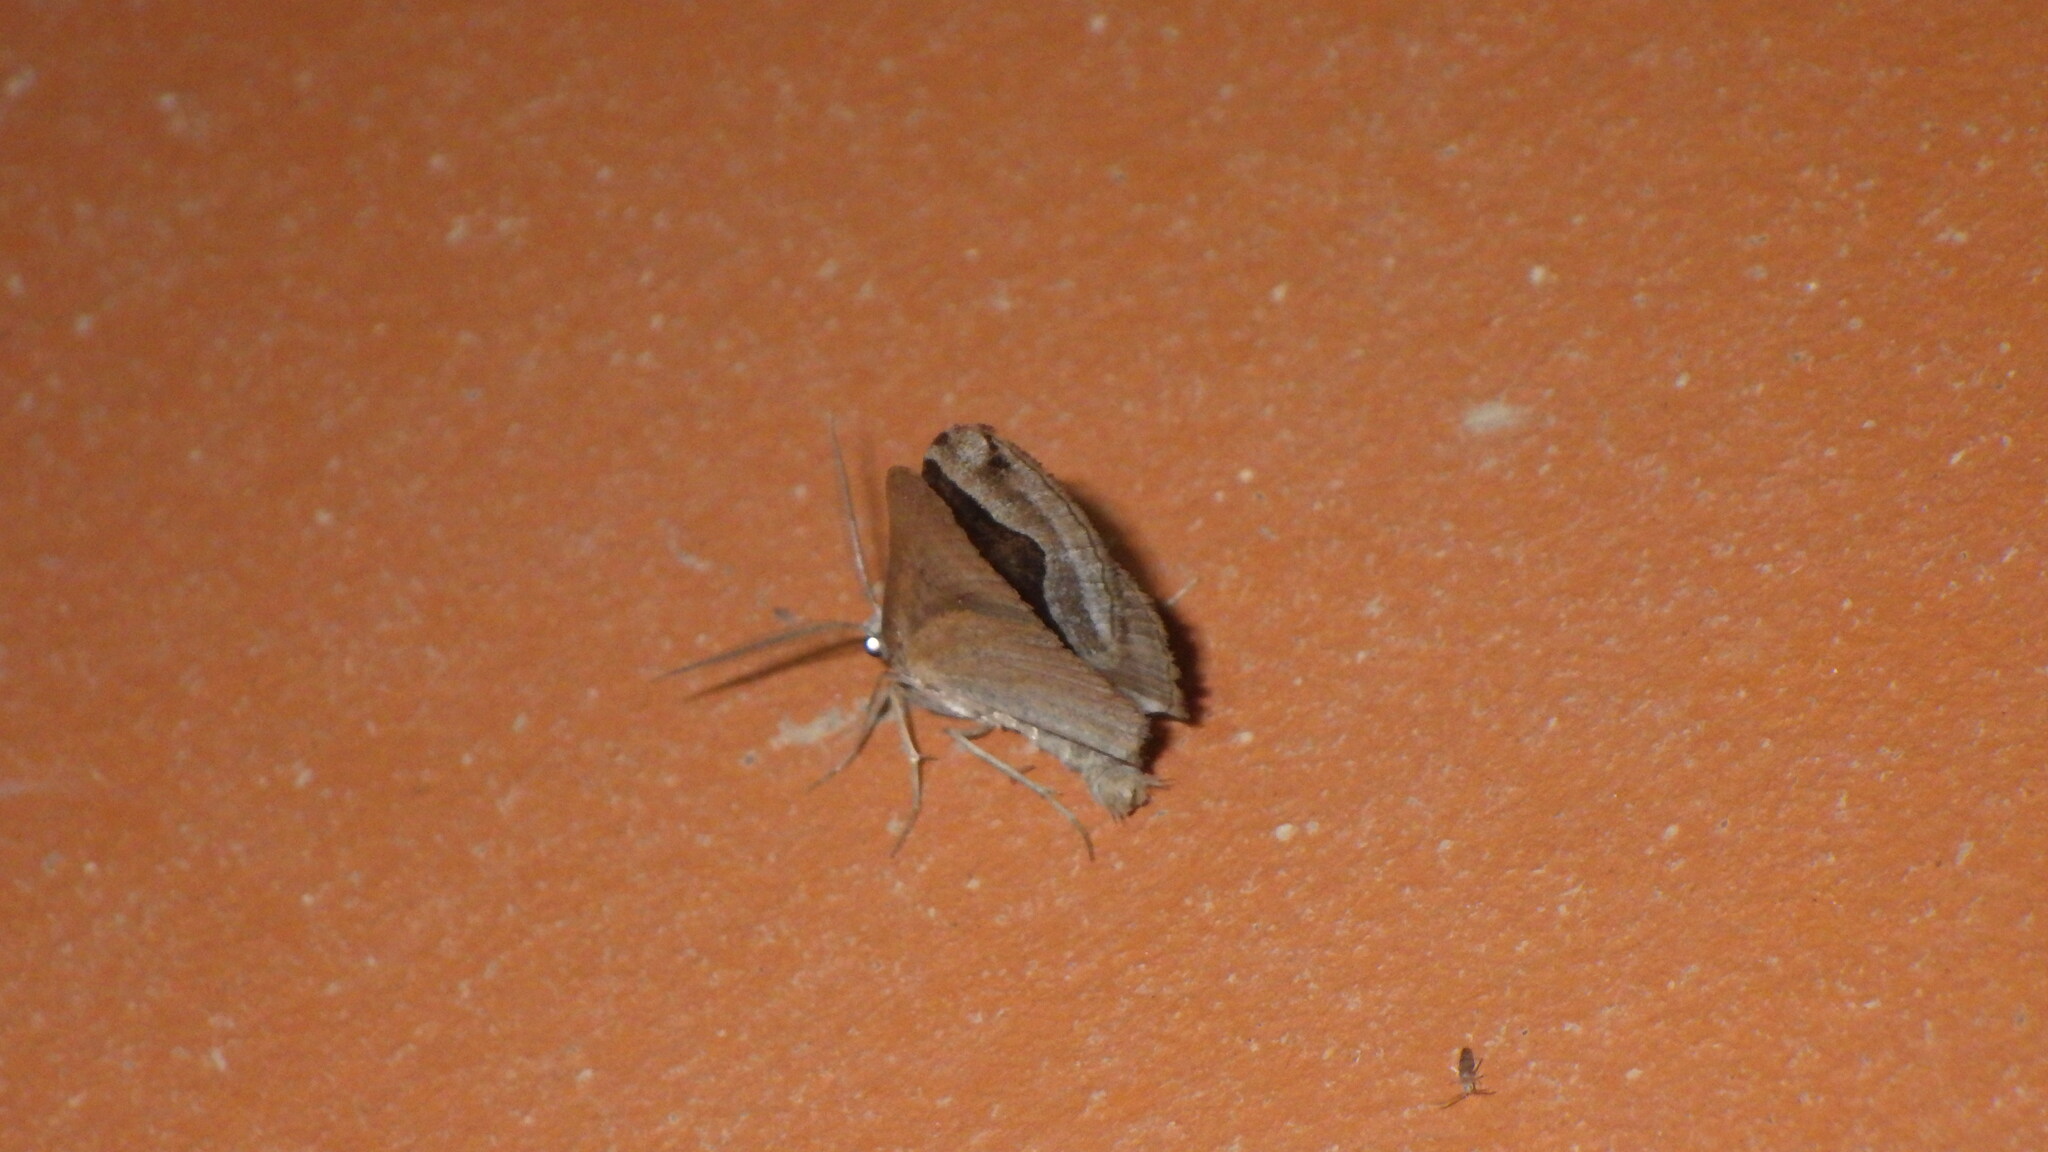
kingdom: Animalia
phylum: Arthropoda
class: Insecta
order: Lepidoptera
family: Geometridae
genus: Scotopteryx
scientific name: Scotopteryx peribolata
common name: Spanish carpet
